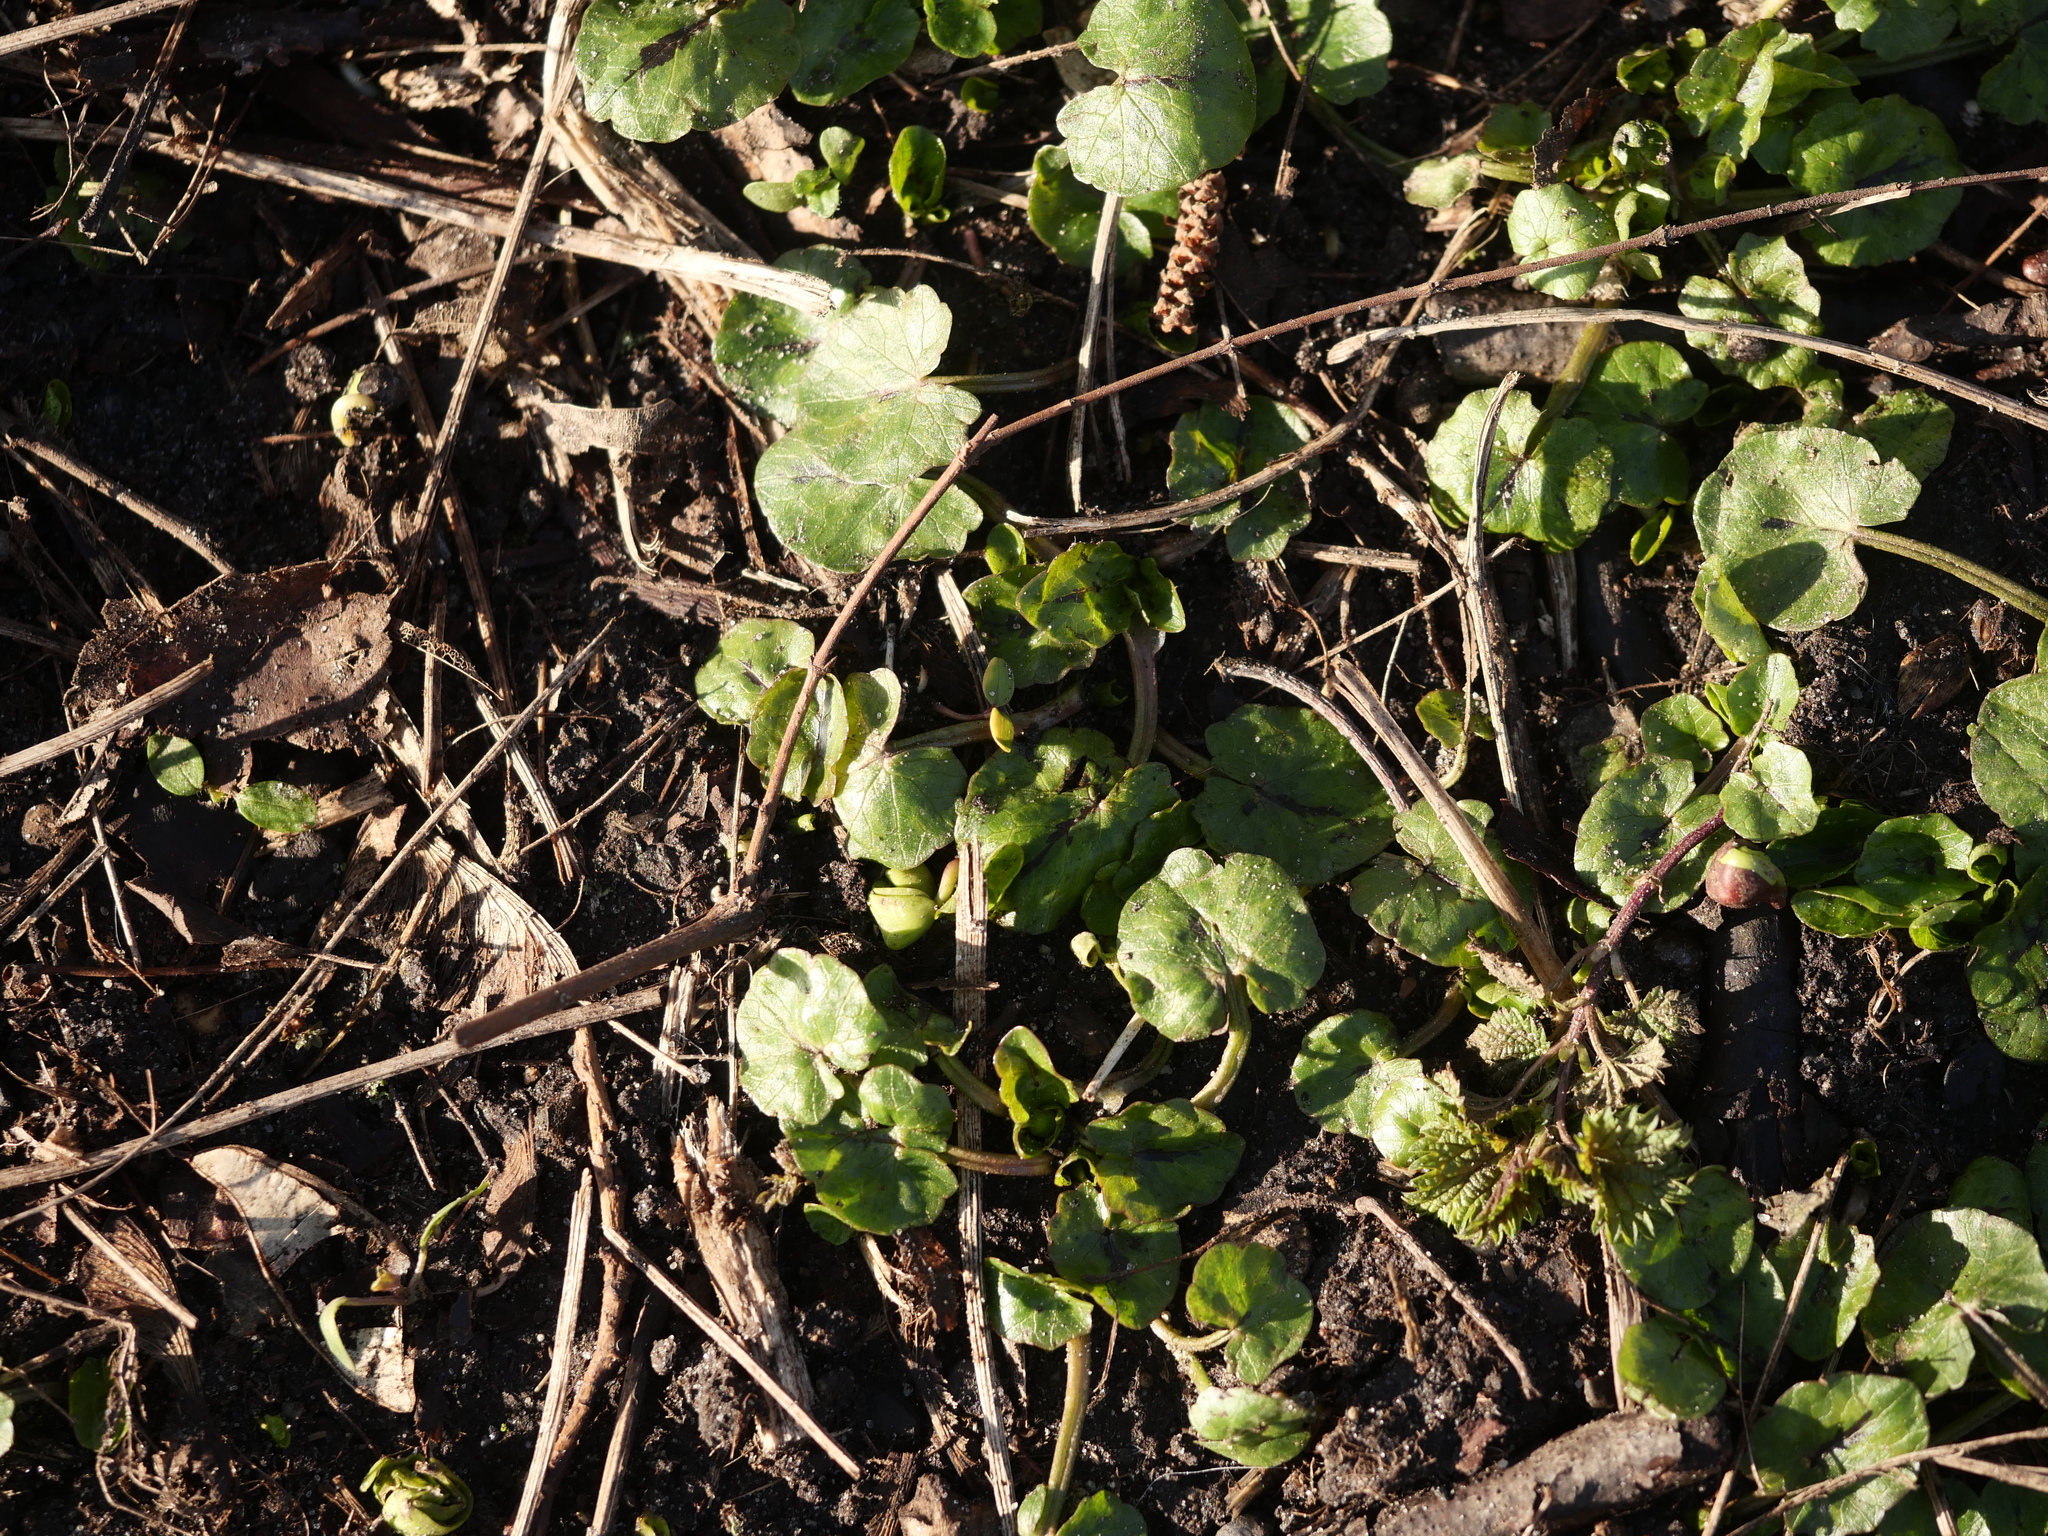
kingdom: Plantae
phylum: Tracheophyta
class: Magnoliopsida
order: Ranunculales
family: Ranunculaceae
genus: Ficaria
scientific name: Ficaria verna
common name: Lesser celandine
